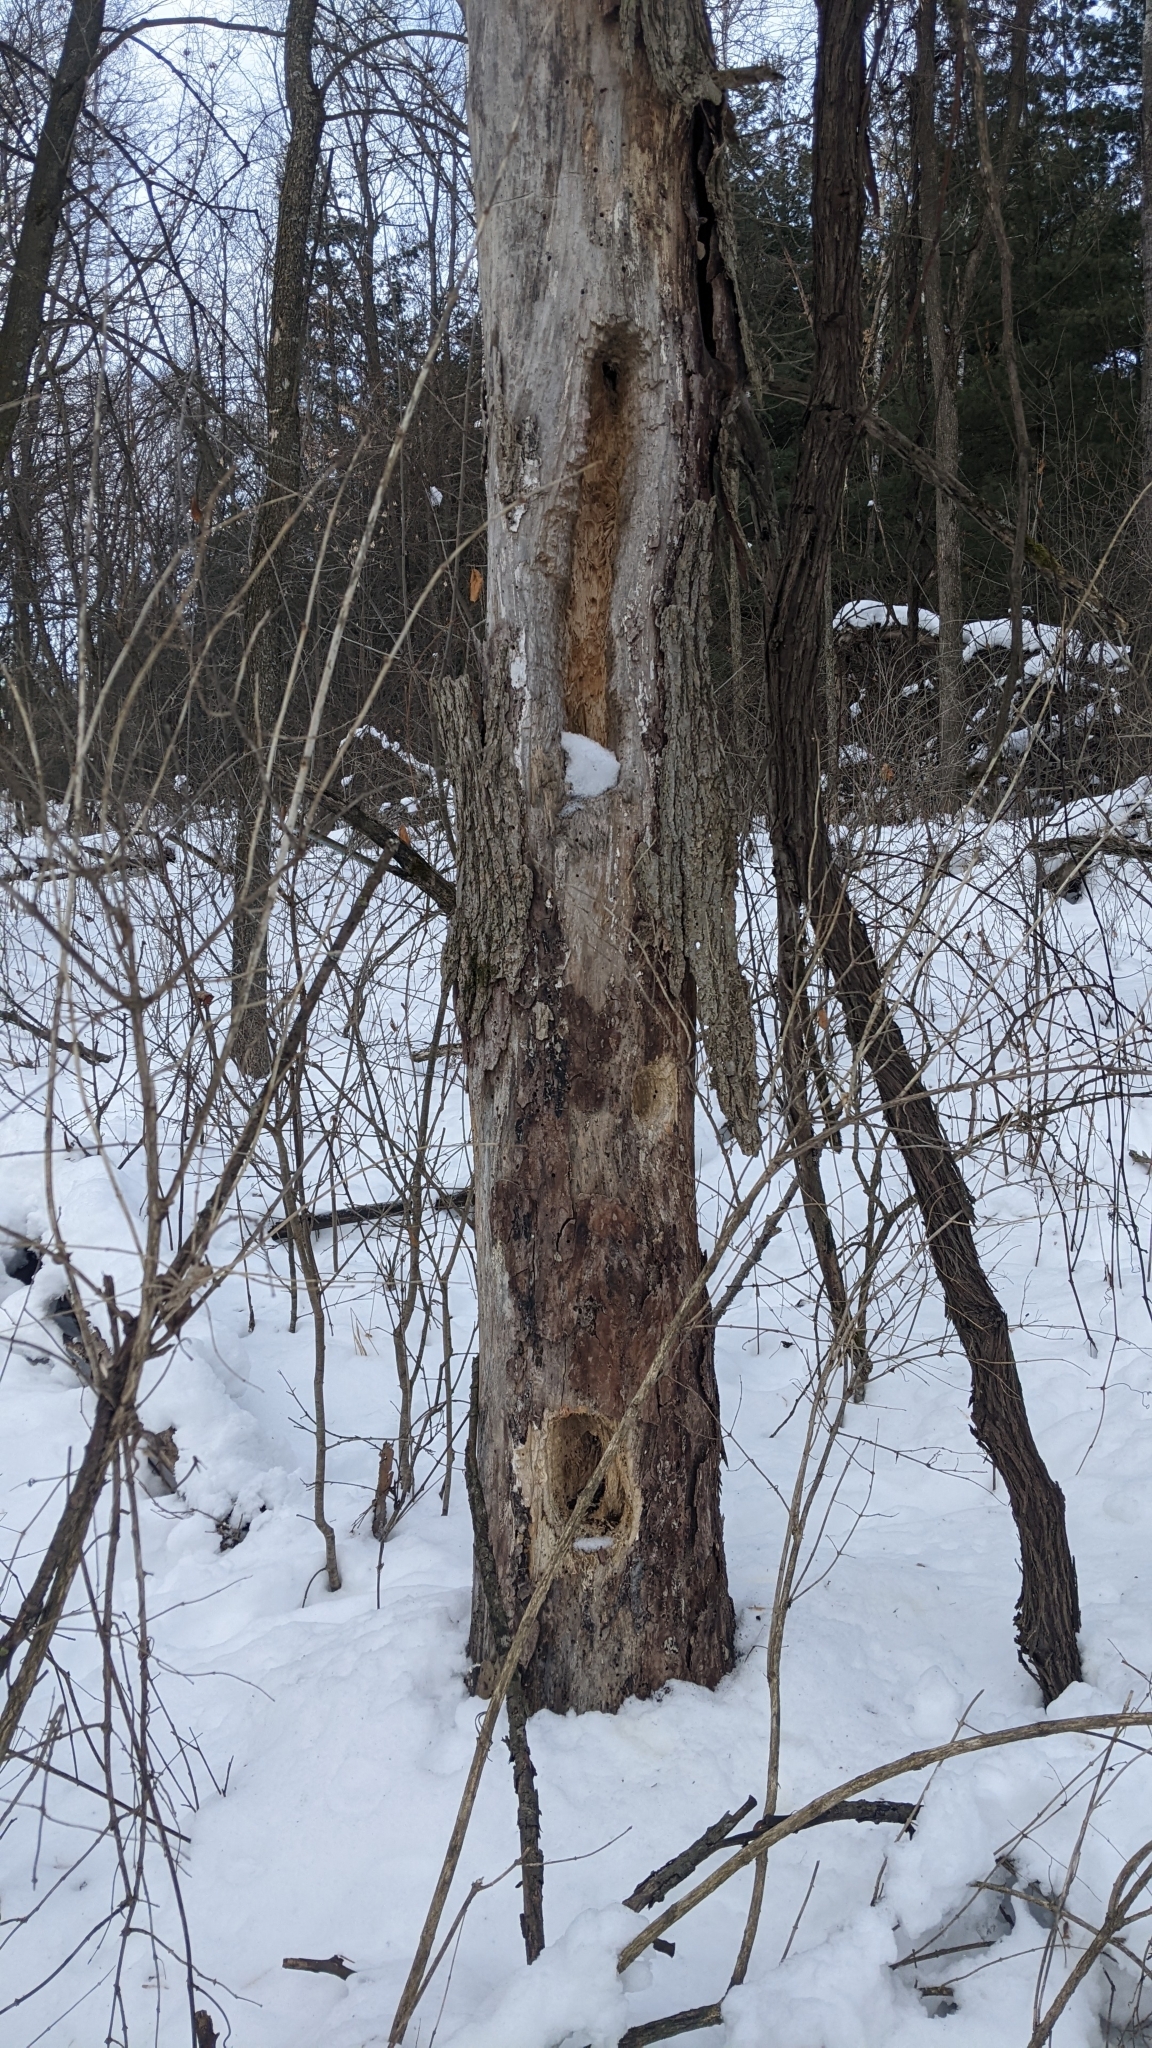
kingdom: Animalia
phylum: Chordata
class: Aves
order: Piciformes
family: Picidae
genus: Dryocopus
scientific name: Dryocopus pileatus
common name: Pileated woodpecker
